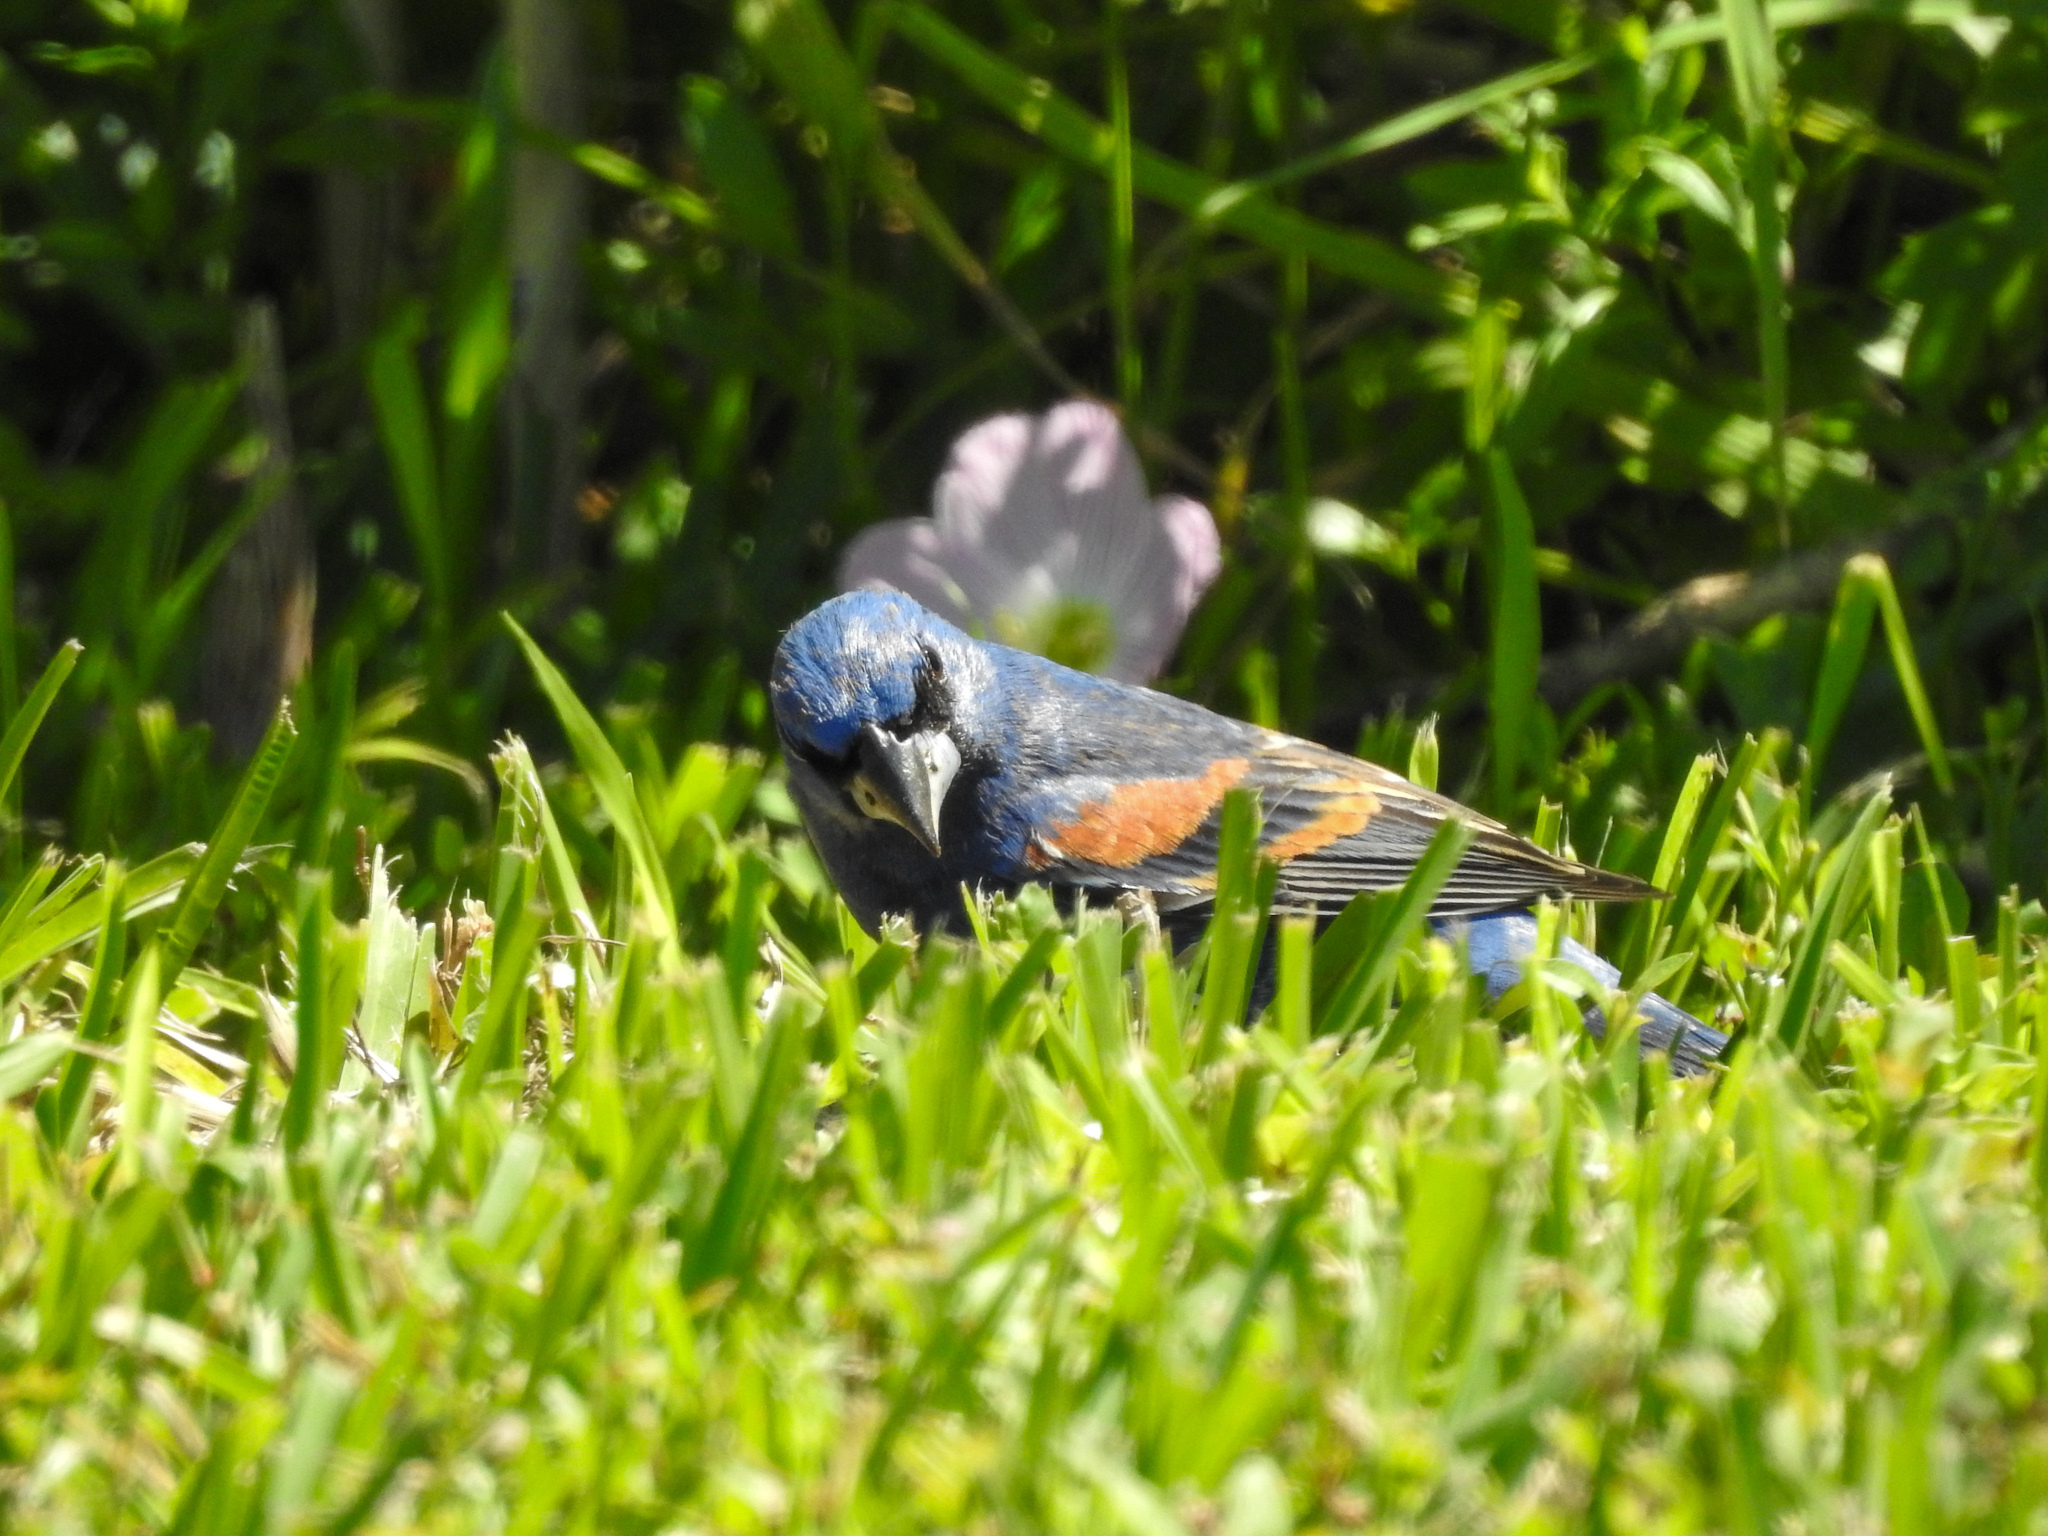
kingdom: Animalia
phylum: Chordata
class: Aves
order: Passeriformes
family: Cardinalidae
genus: Passerina
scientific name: Passerina caerulea
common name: Blue grosbeak
